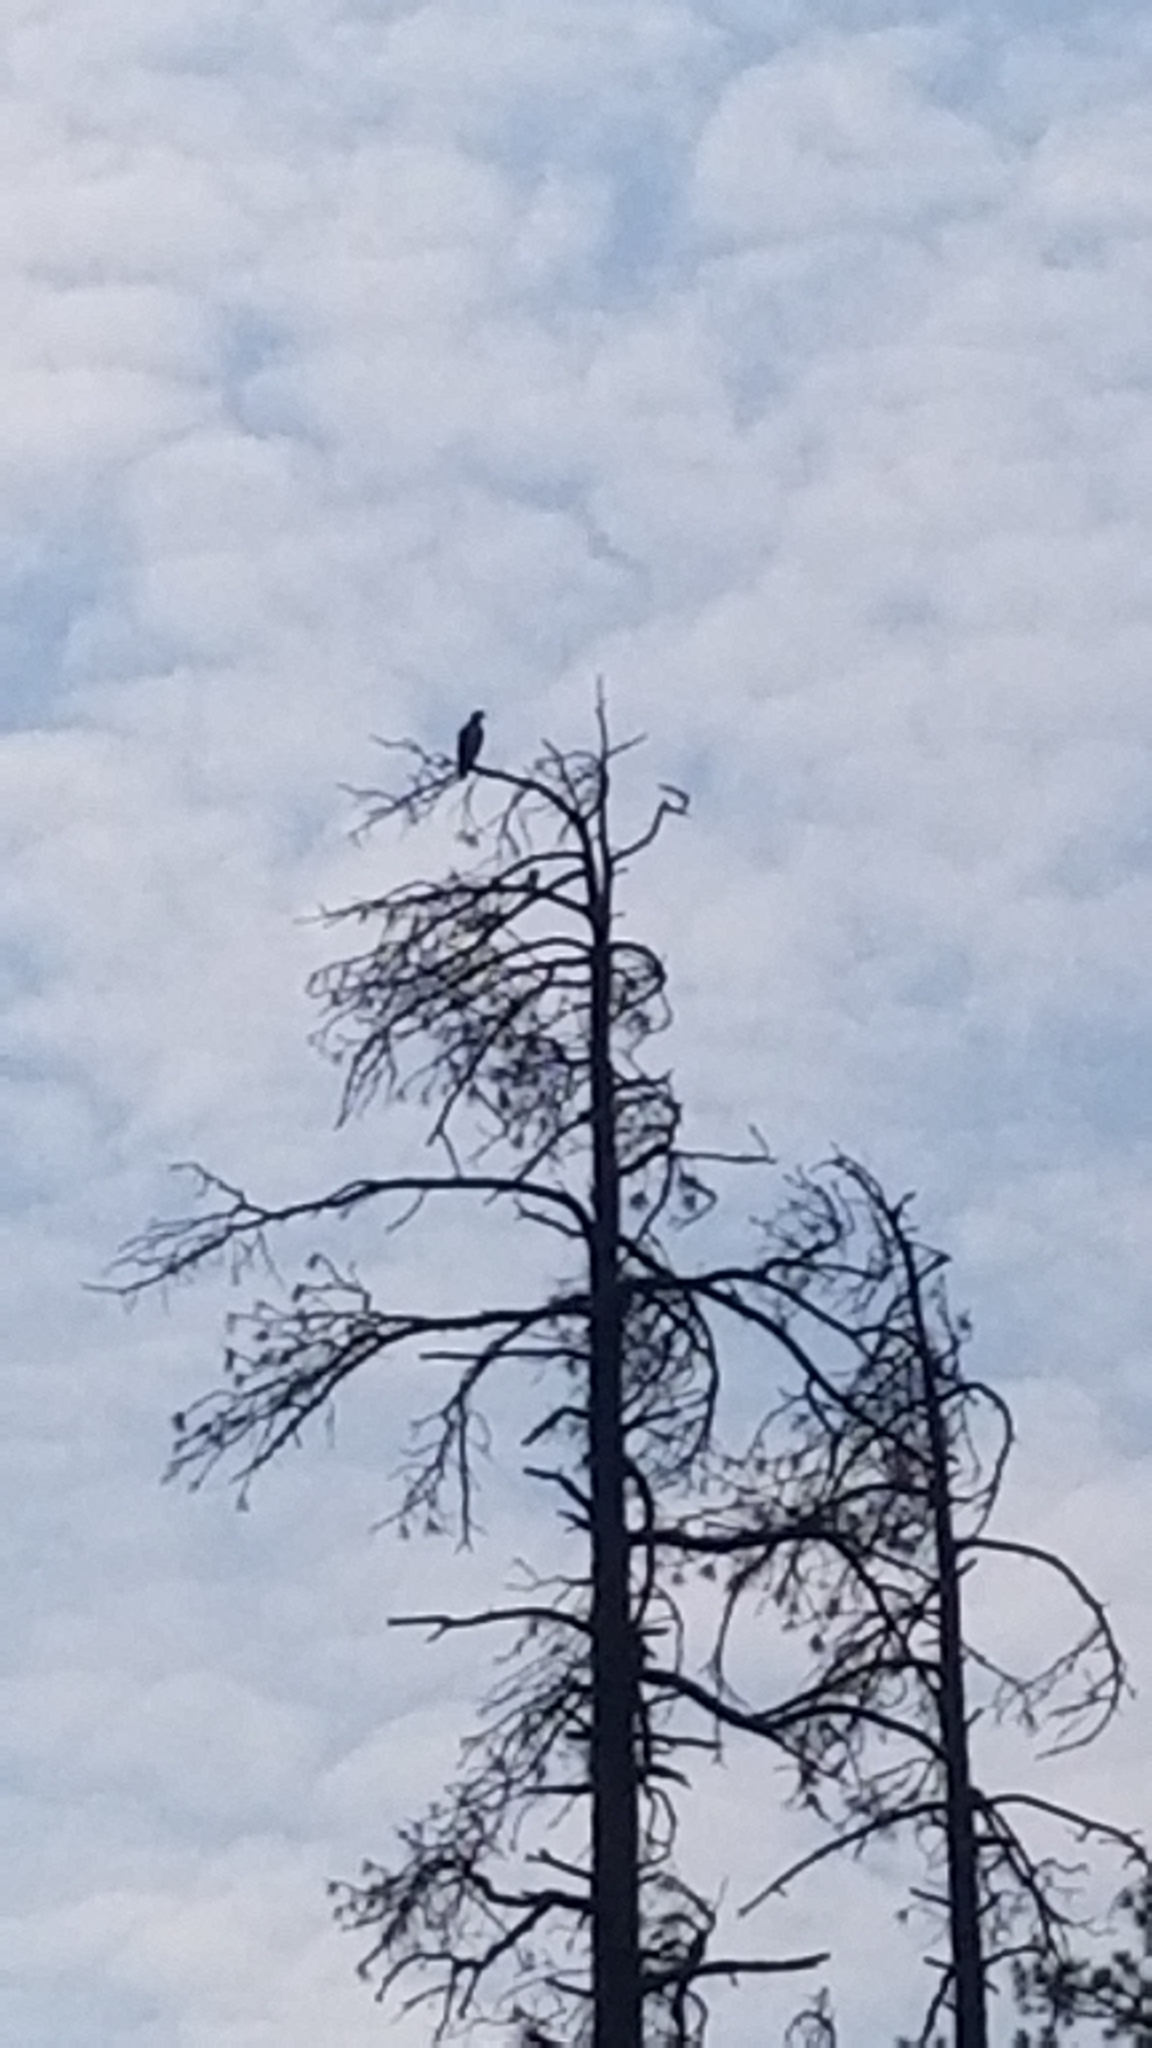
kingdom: Animalia
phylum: Chordata
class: Aves
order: Accipitriformes
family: Pandionidae
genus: Pandion
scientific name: Pandion haliaetus
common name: Osprey
